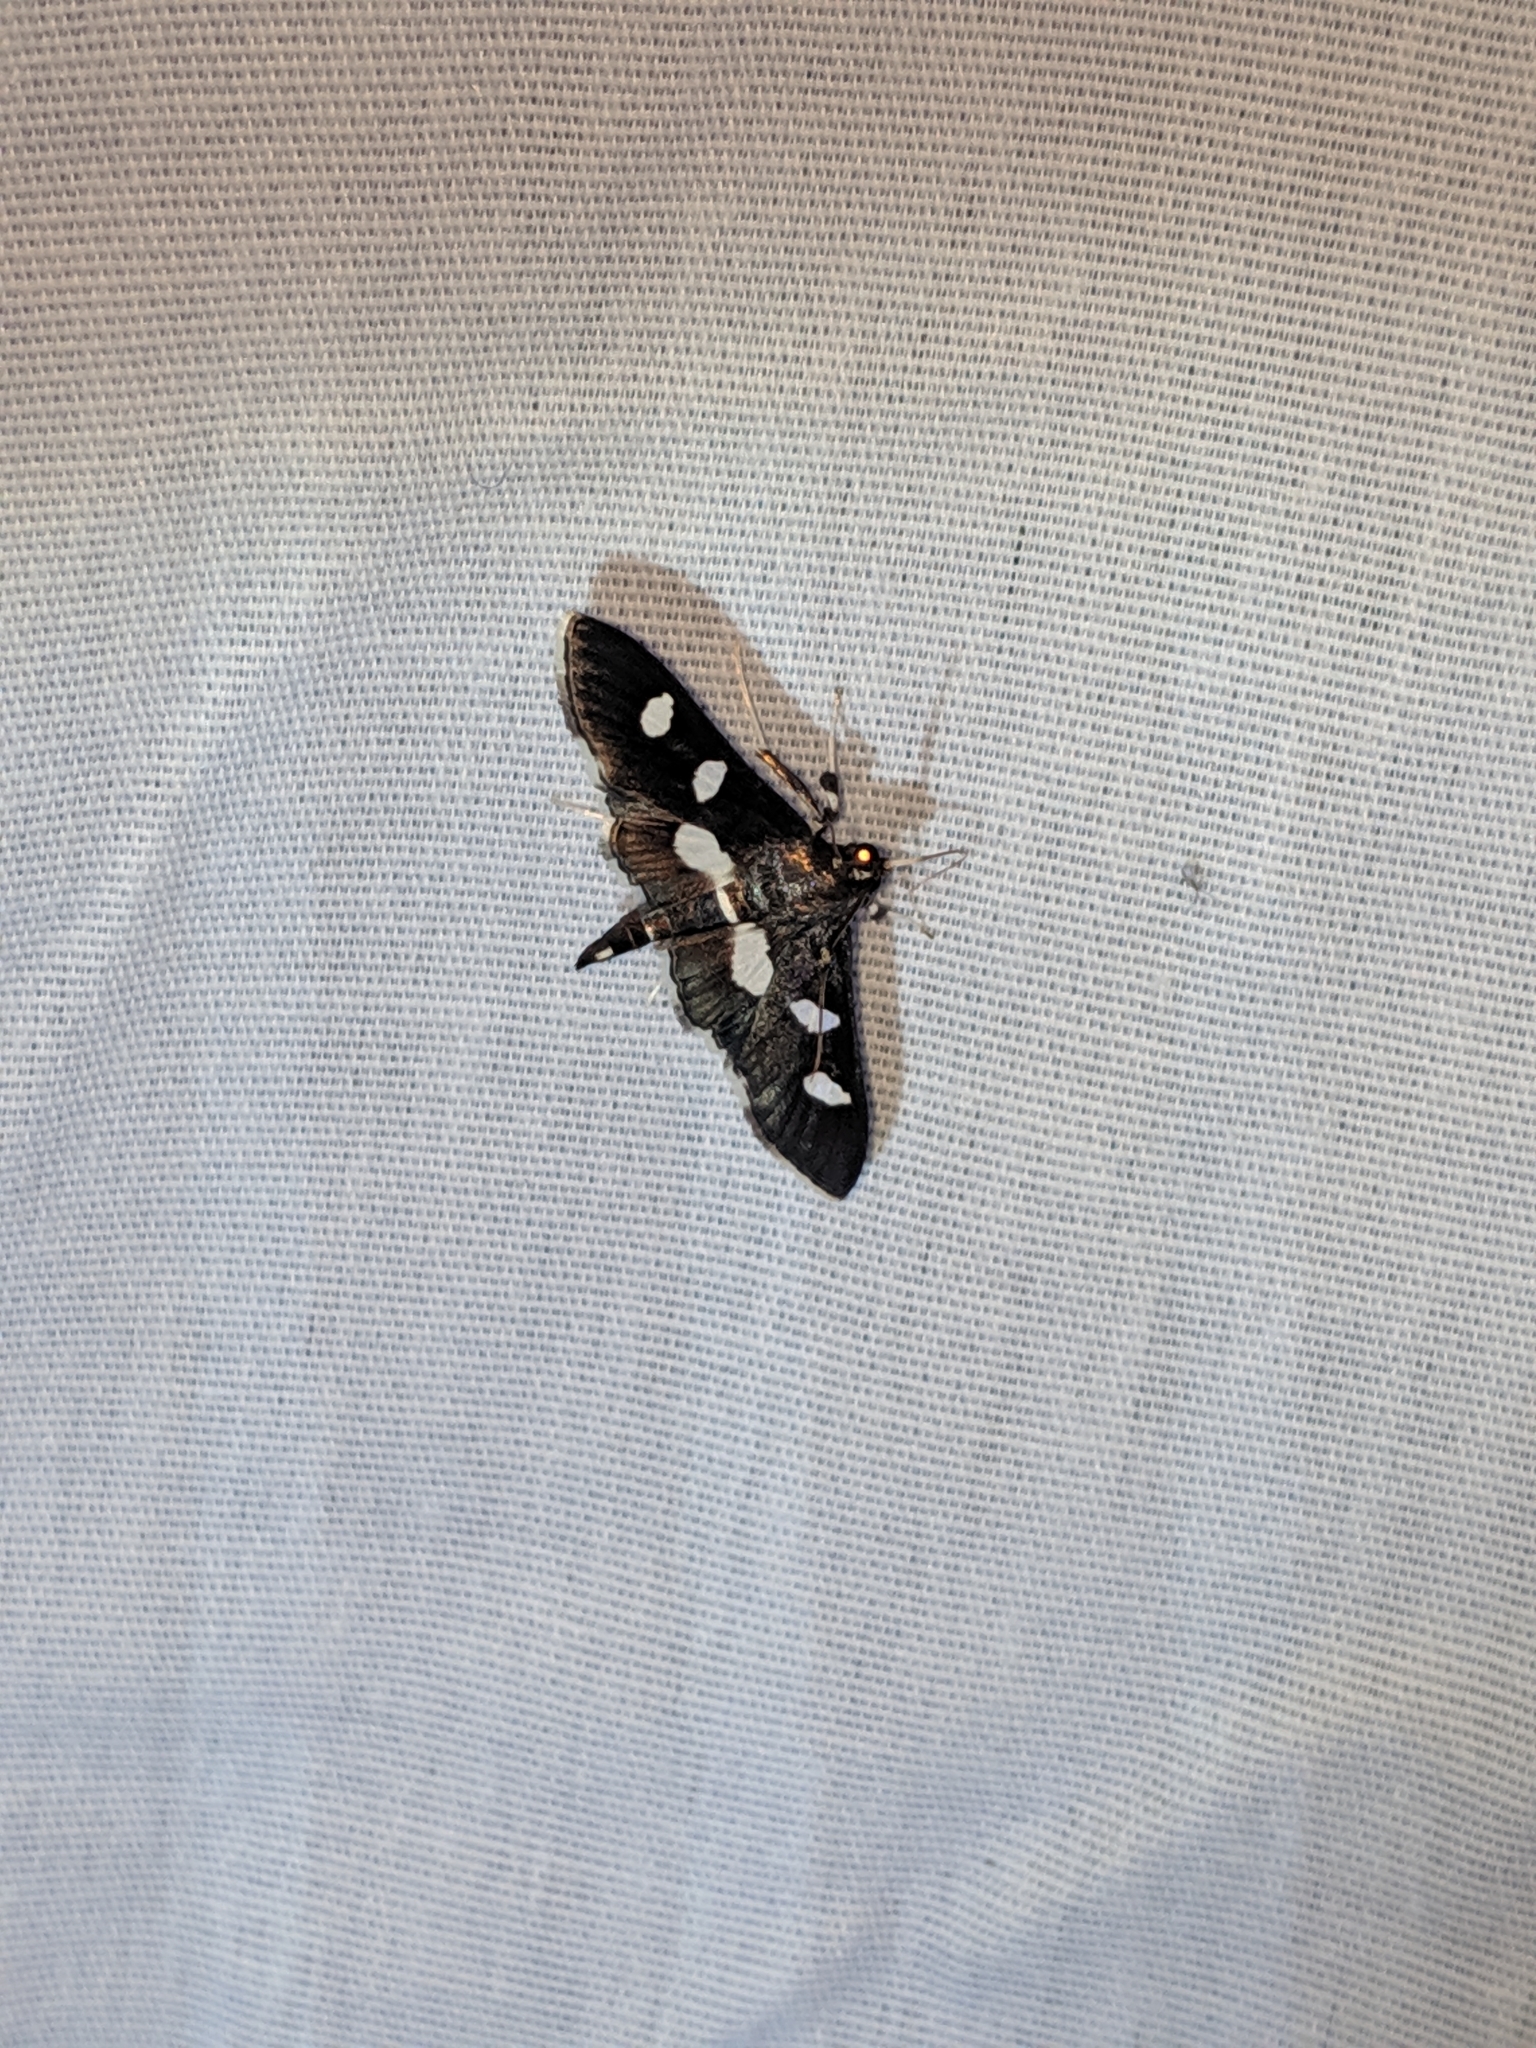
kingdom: Animalia
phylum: Arthropoda
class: Insecta
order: Lepidoptera
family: Crambidae
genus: Desmia
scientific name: Desmia
